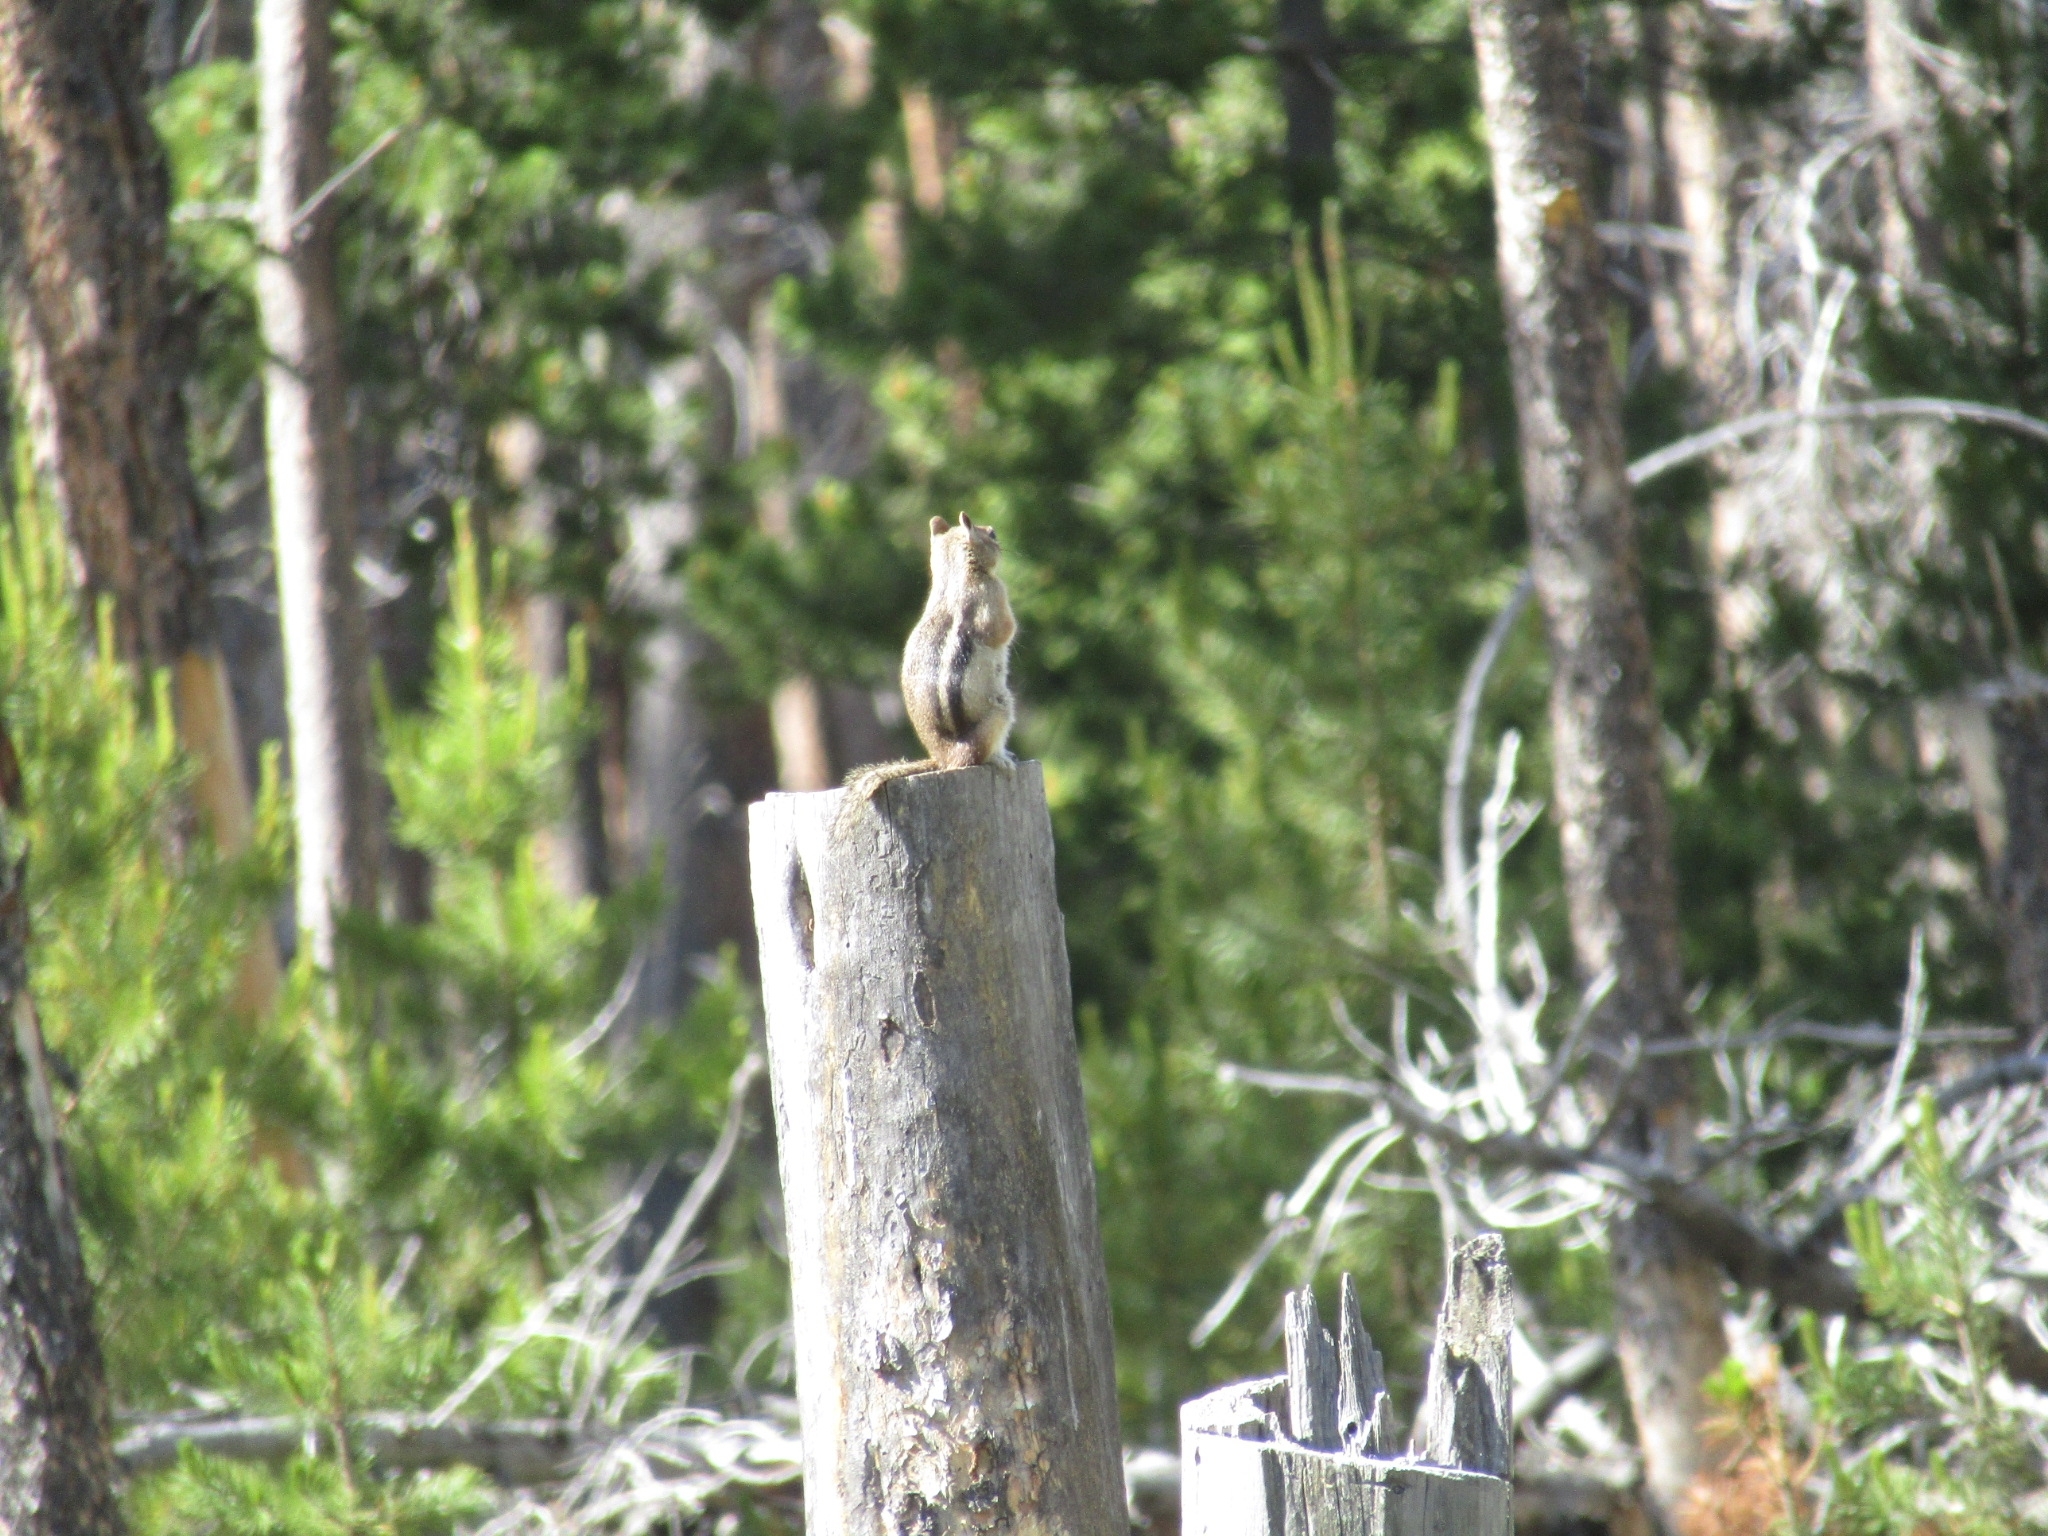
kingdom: Animalia
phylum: Chordata
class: Mammalia
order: Rodentia
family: Sciuridae
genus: Callospermophilus
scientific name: Callospermophilus lateralis
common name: Golden-mantled ground squirrel
